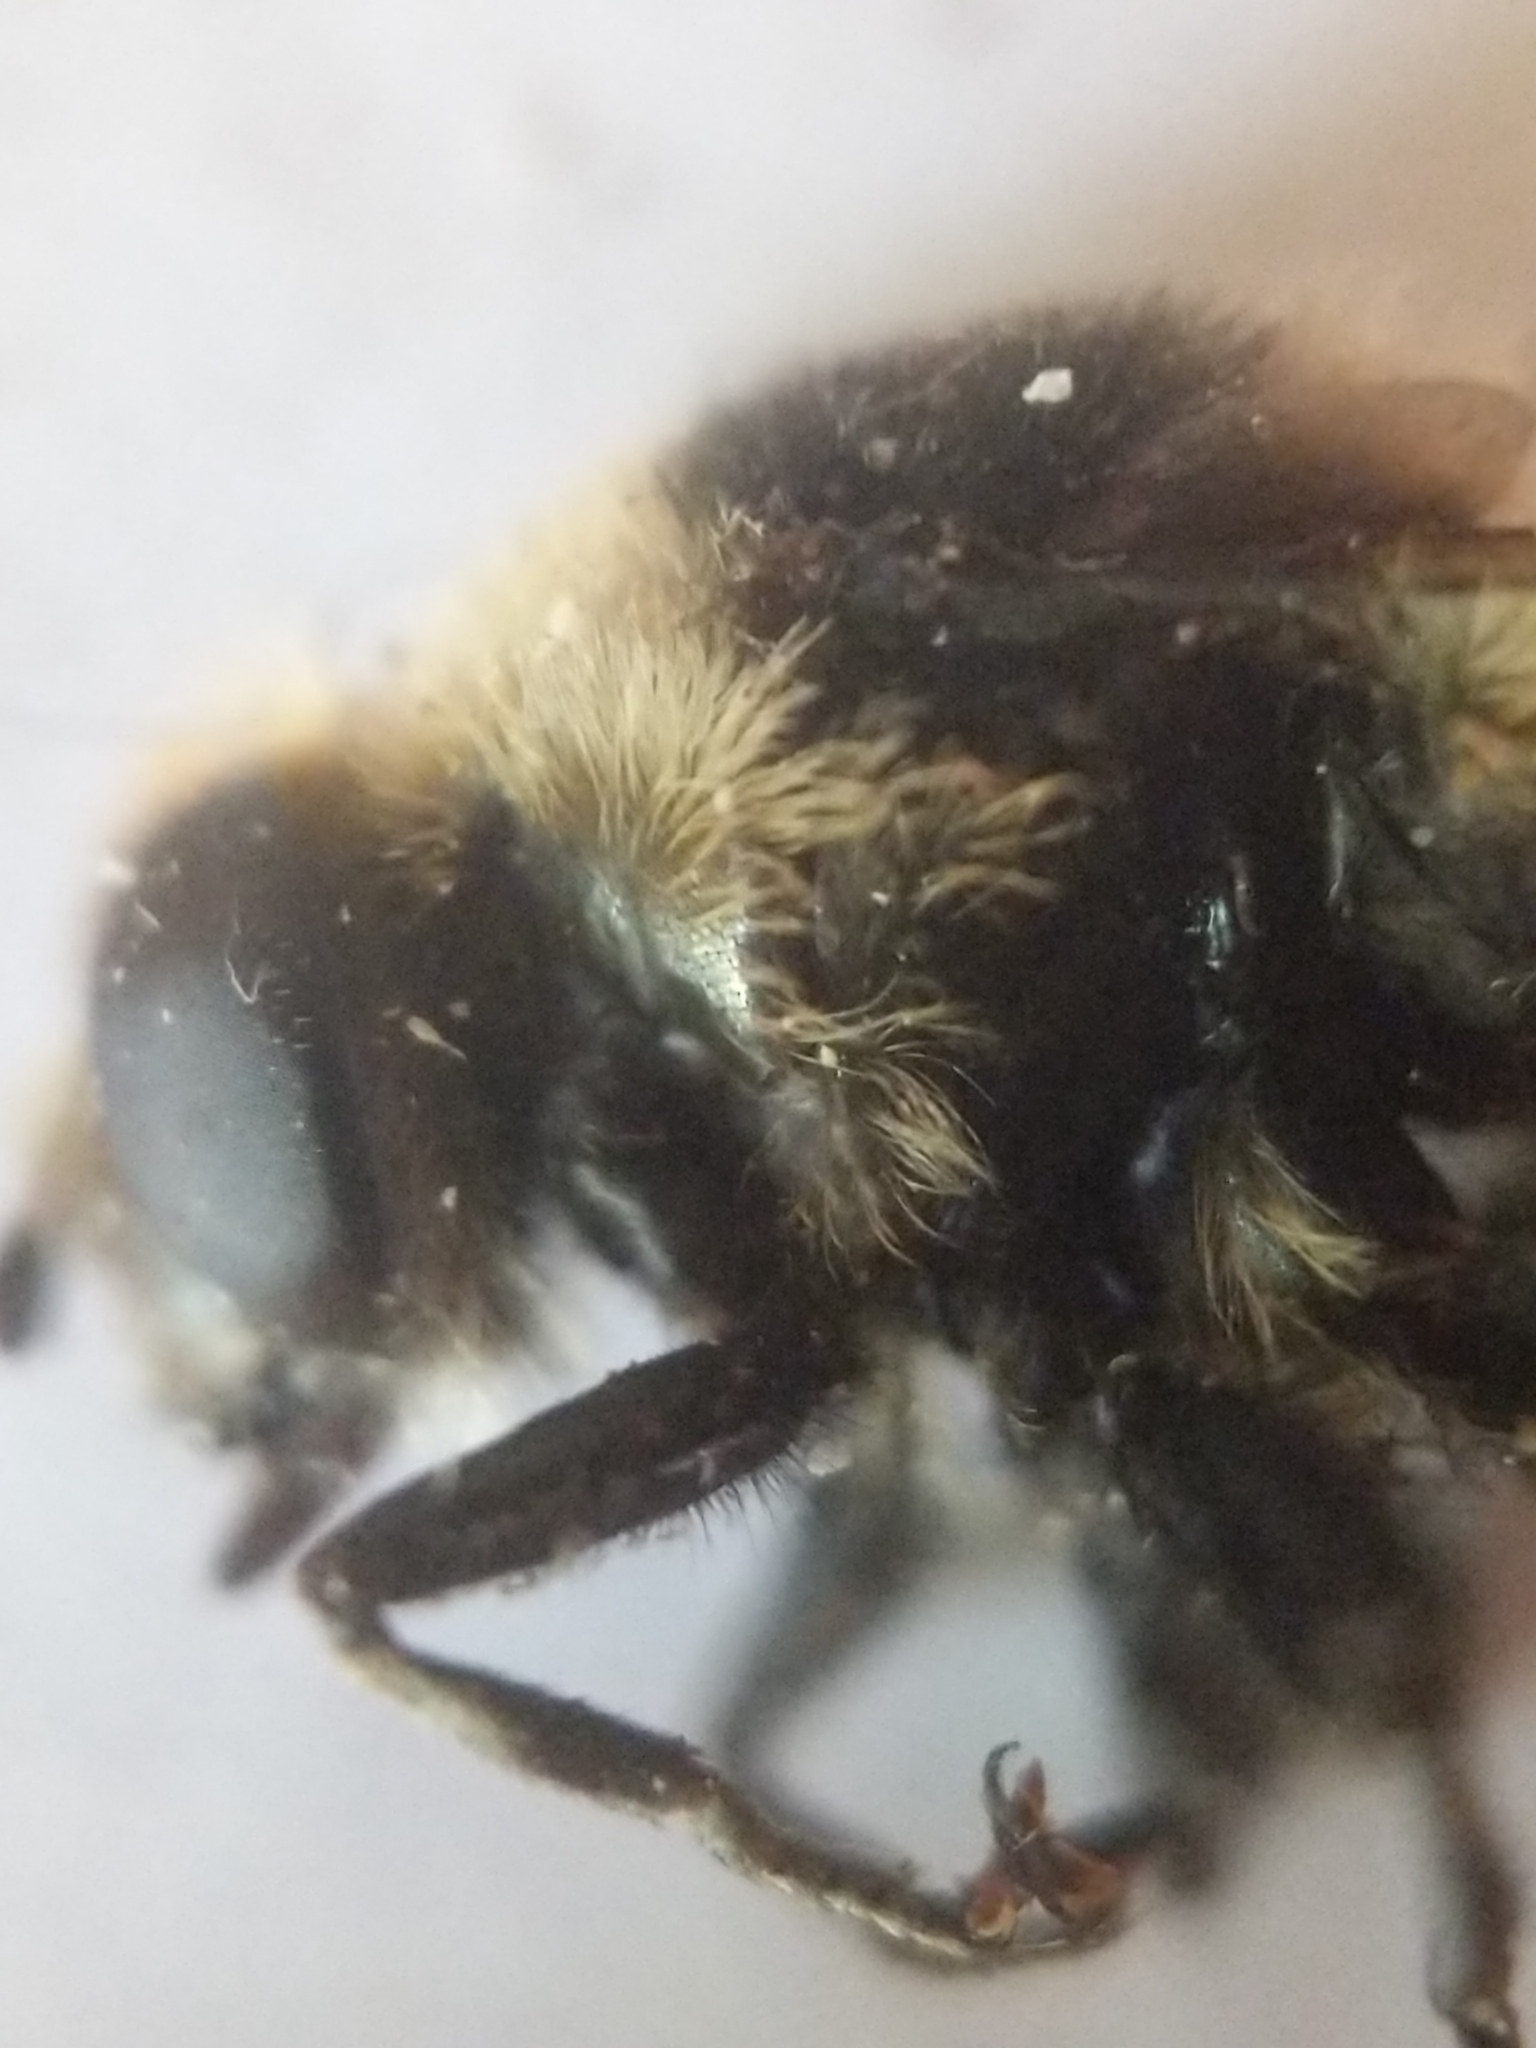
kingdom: Animalia
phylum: Arthropoda
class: Insecta
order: Diptera
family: Syrphidae
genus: Merodon
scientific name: Merodon equestris
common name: Greater bulb-fly
